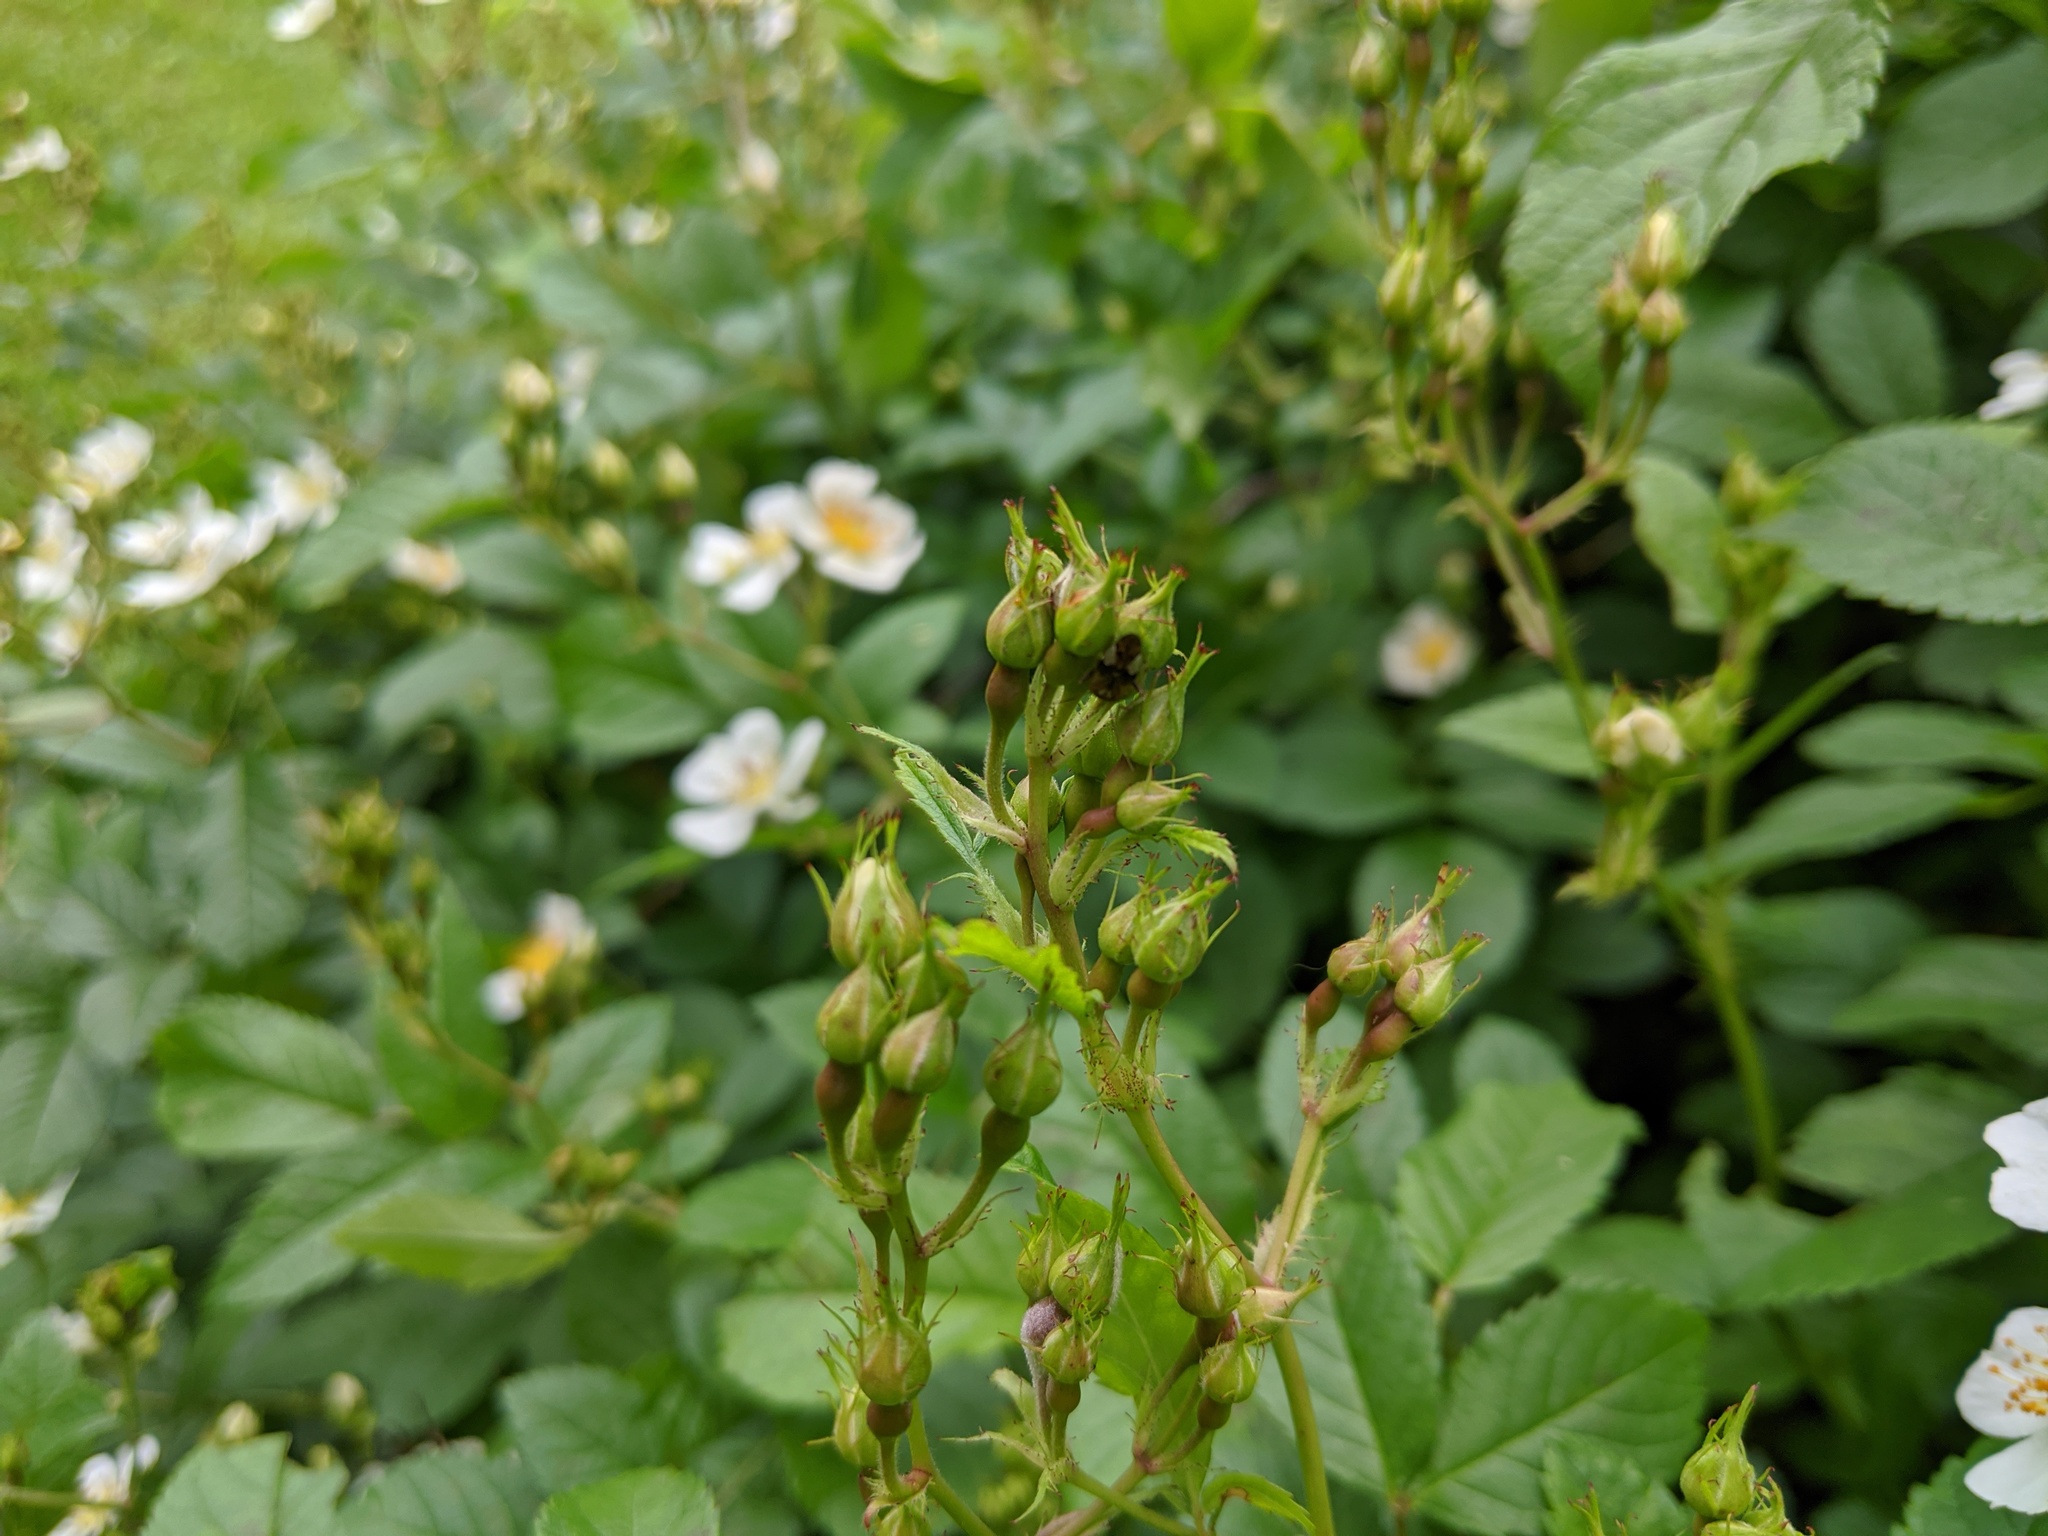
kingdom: Plantae
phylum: Tracheophyta
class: Magnoliopsida
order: Rosales
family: Rosaceae
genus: Rosa
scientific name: Rosa multiflora
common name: Multiflora rose
